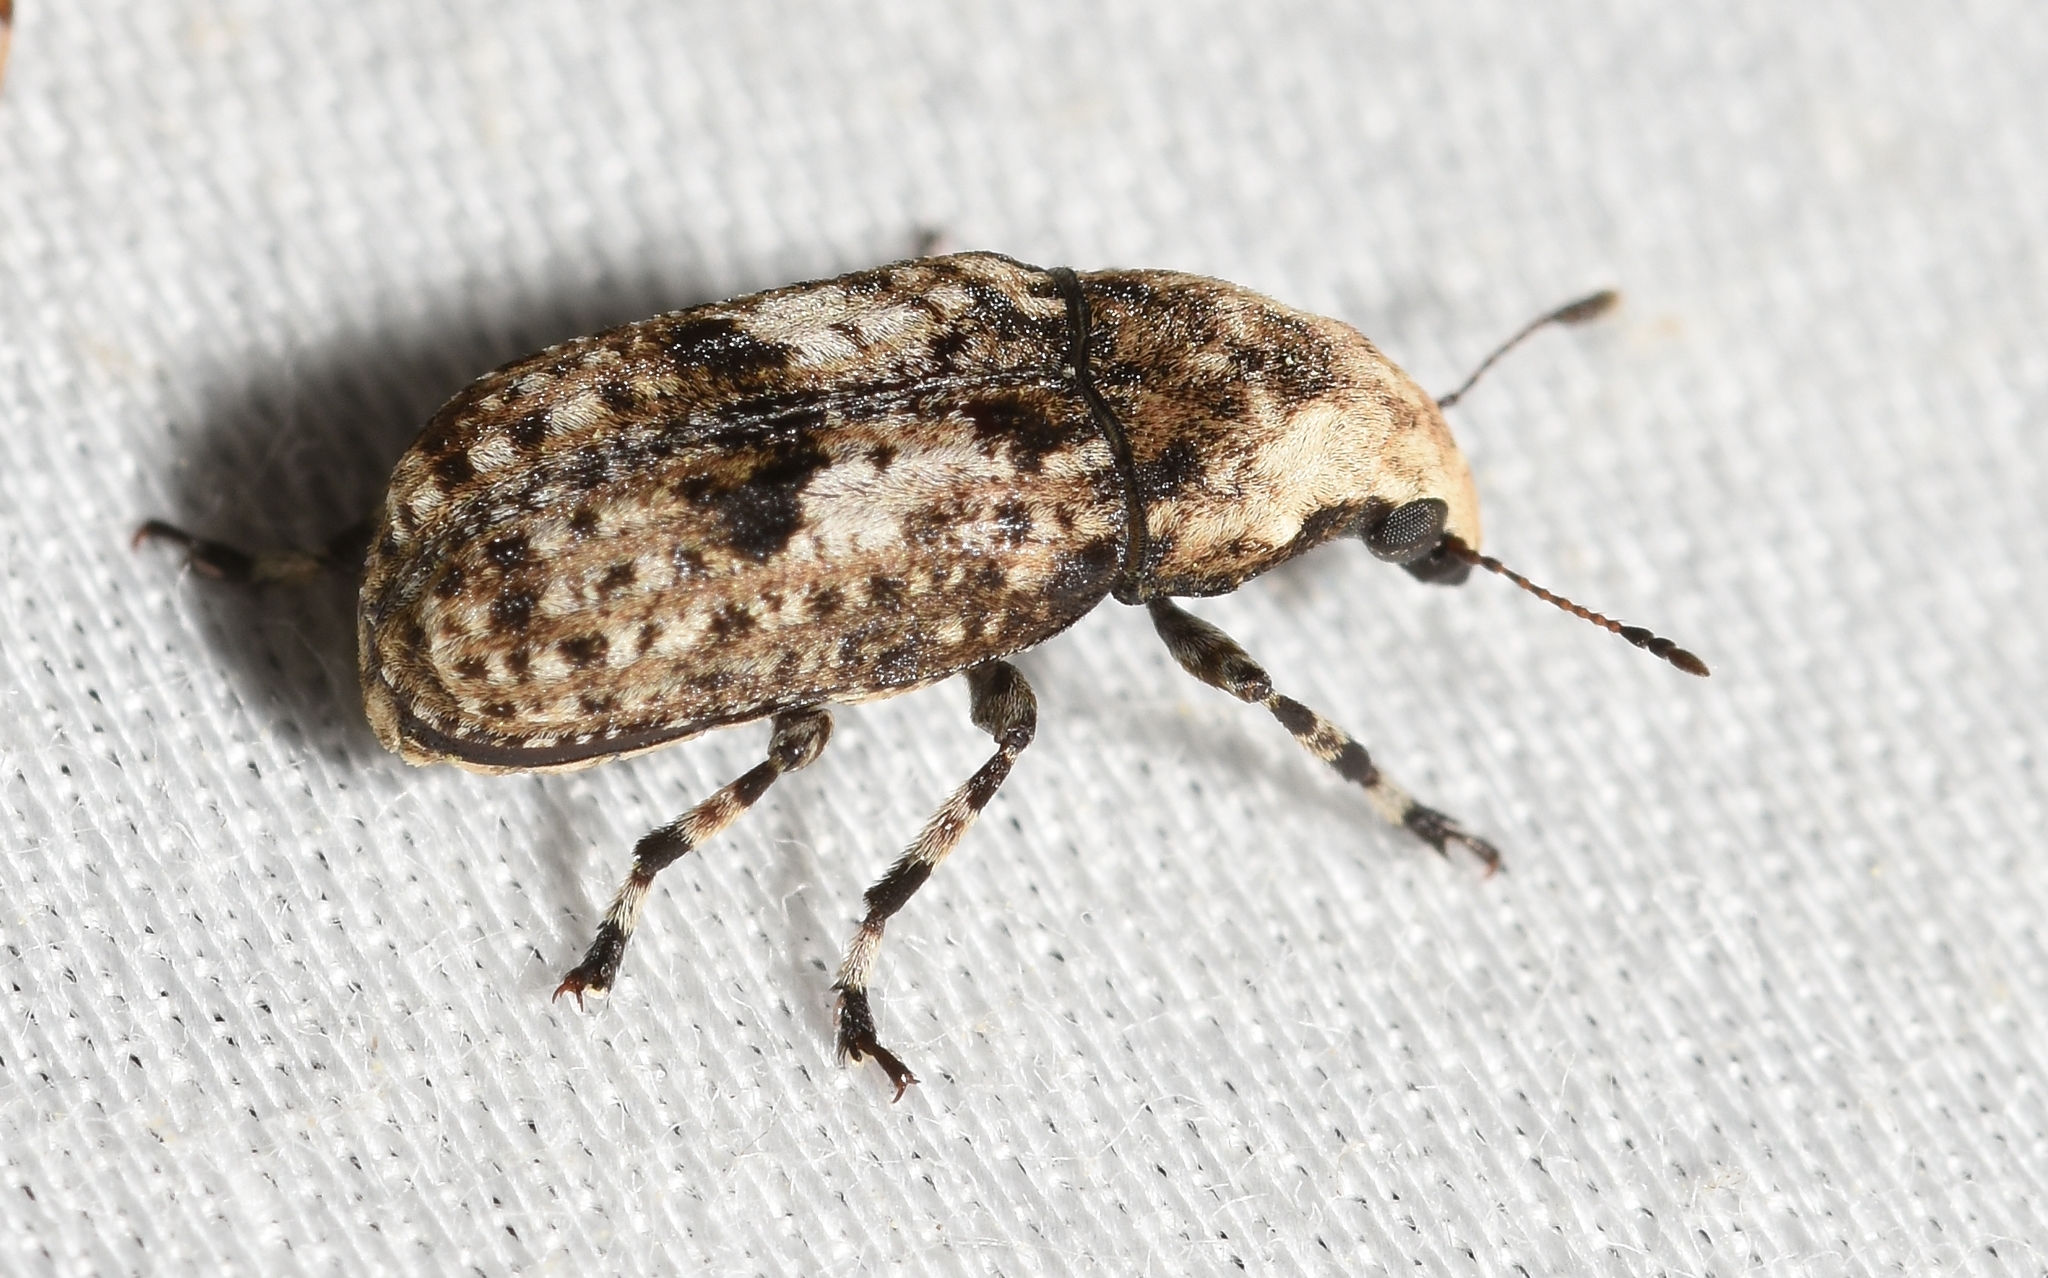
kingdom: Animalia
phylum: Arthropoda
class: Insecta
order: Coleoptera
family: Anthribidae
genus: Euparius
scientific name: Euparius marmoreus
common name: Marbled fungus weevil
